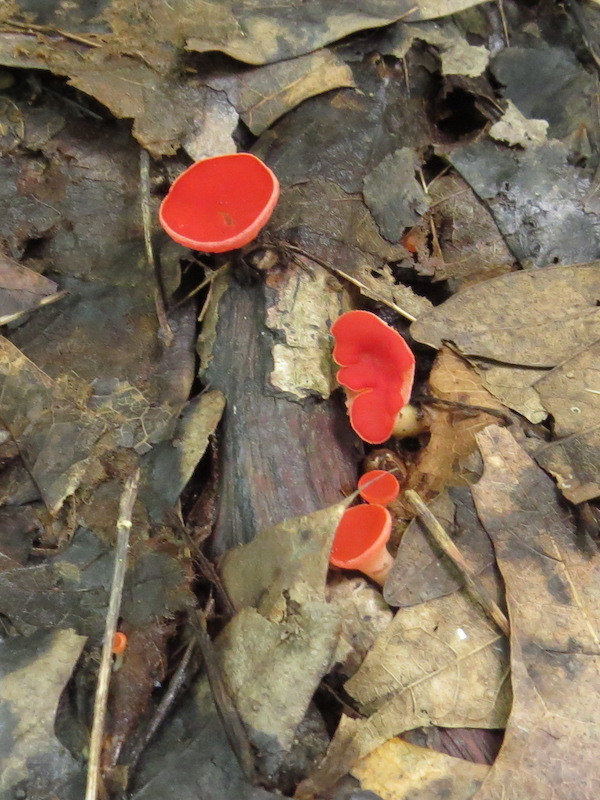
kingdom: Fungi
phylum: Ascomycota
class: Pezizomycetes
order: Pezizales
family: Sarcoscyphaceae
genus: Sarcoscypha
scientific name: Sarcoscypha occidentalis
